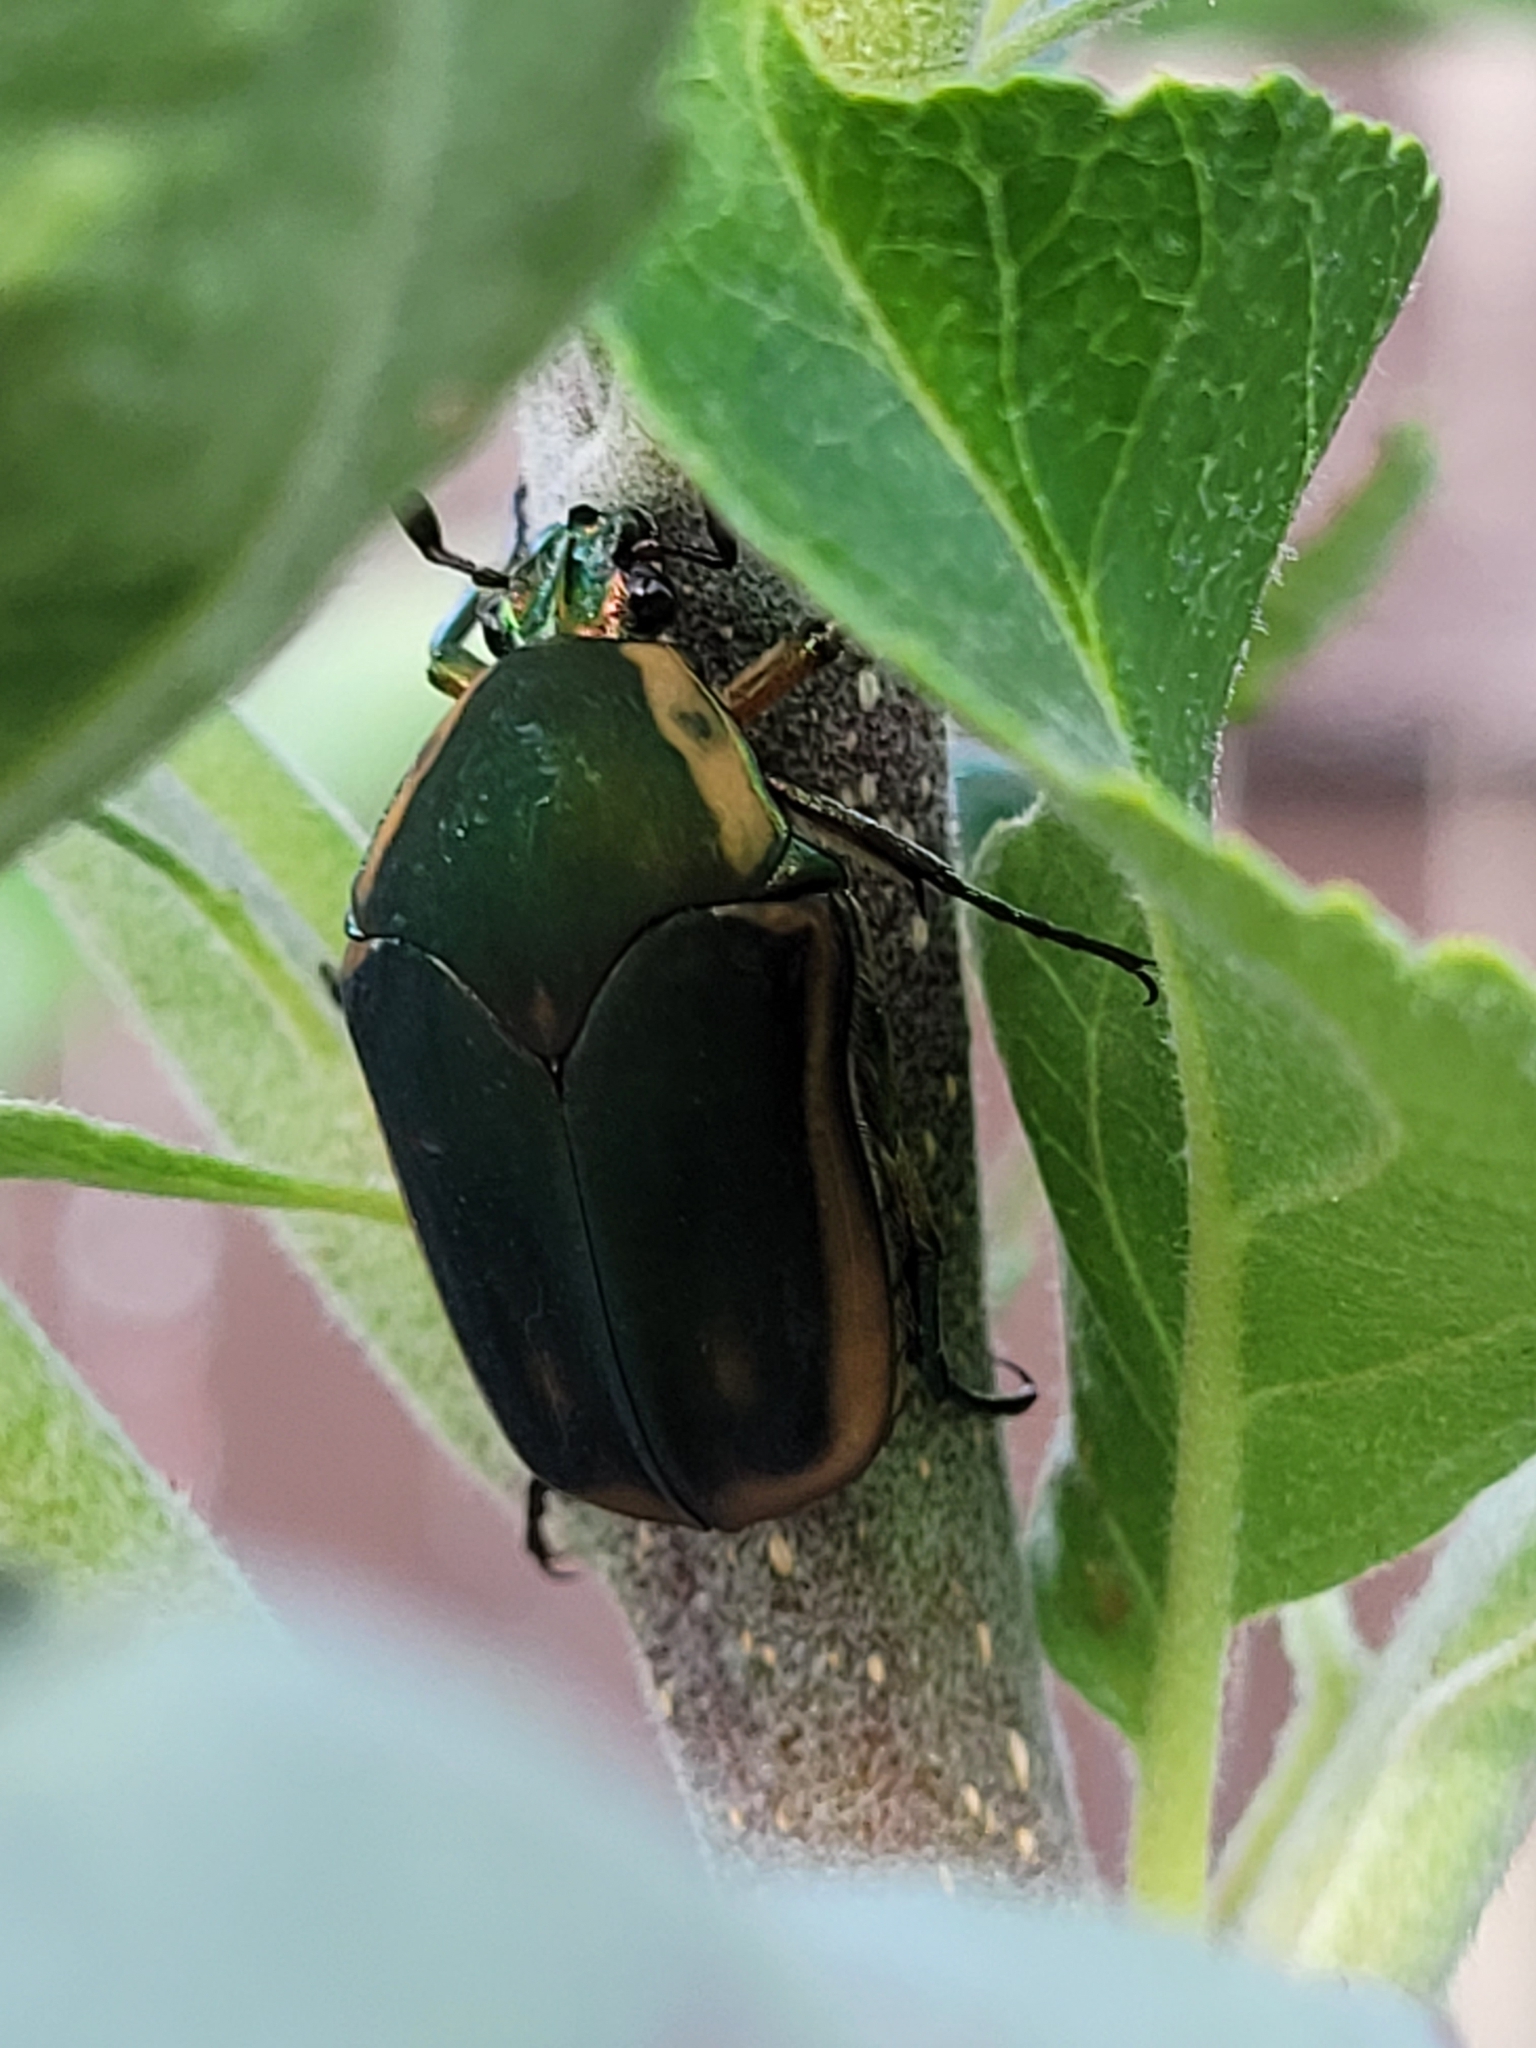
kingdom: Animalia
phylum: Arthropoda
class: Insecta
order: Coleoptera
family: Scarabaeidae
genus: Cotinis
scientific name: Cotinis nitida
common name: Common green june beetle
